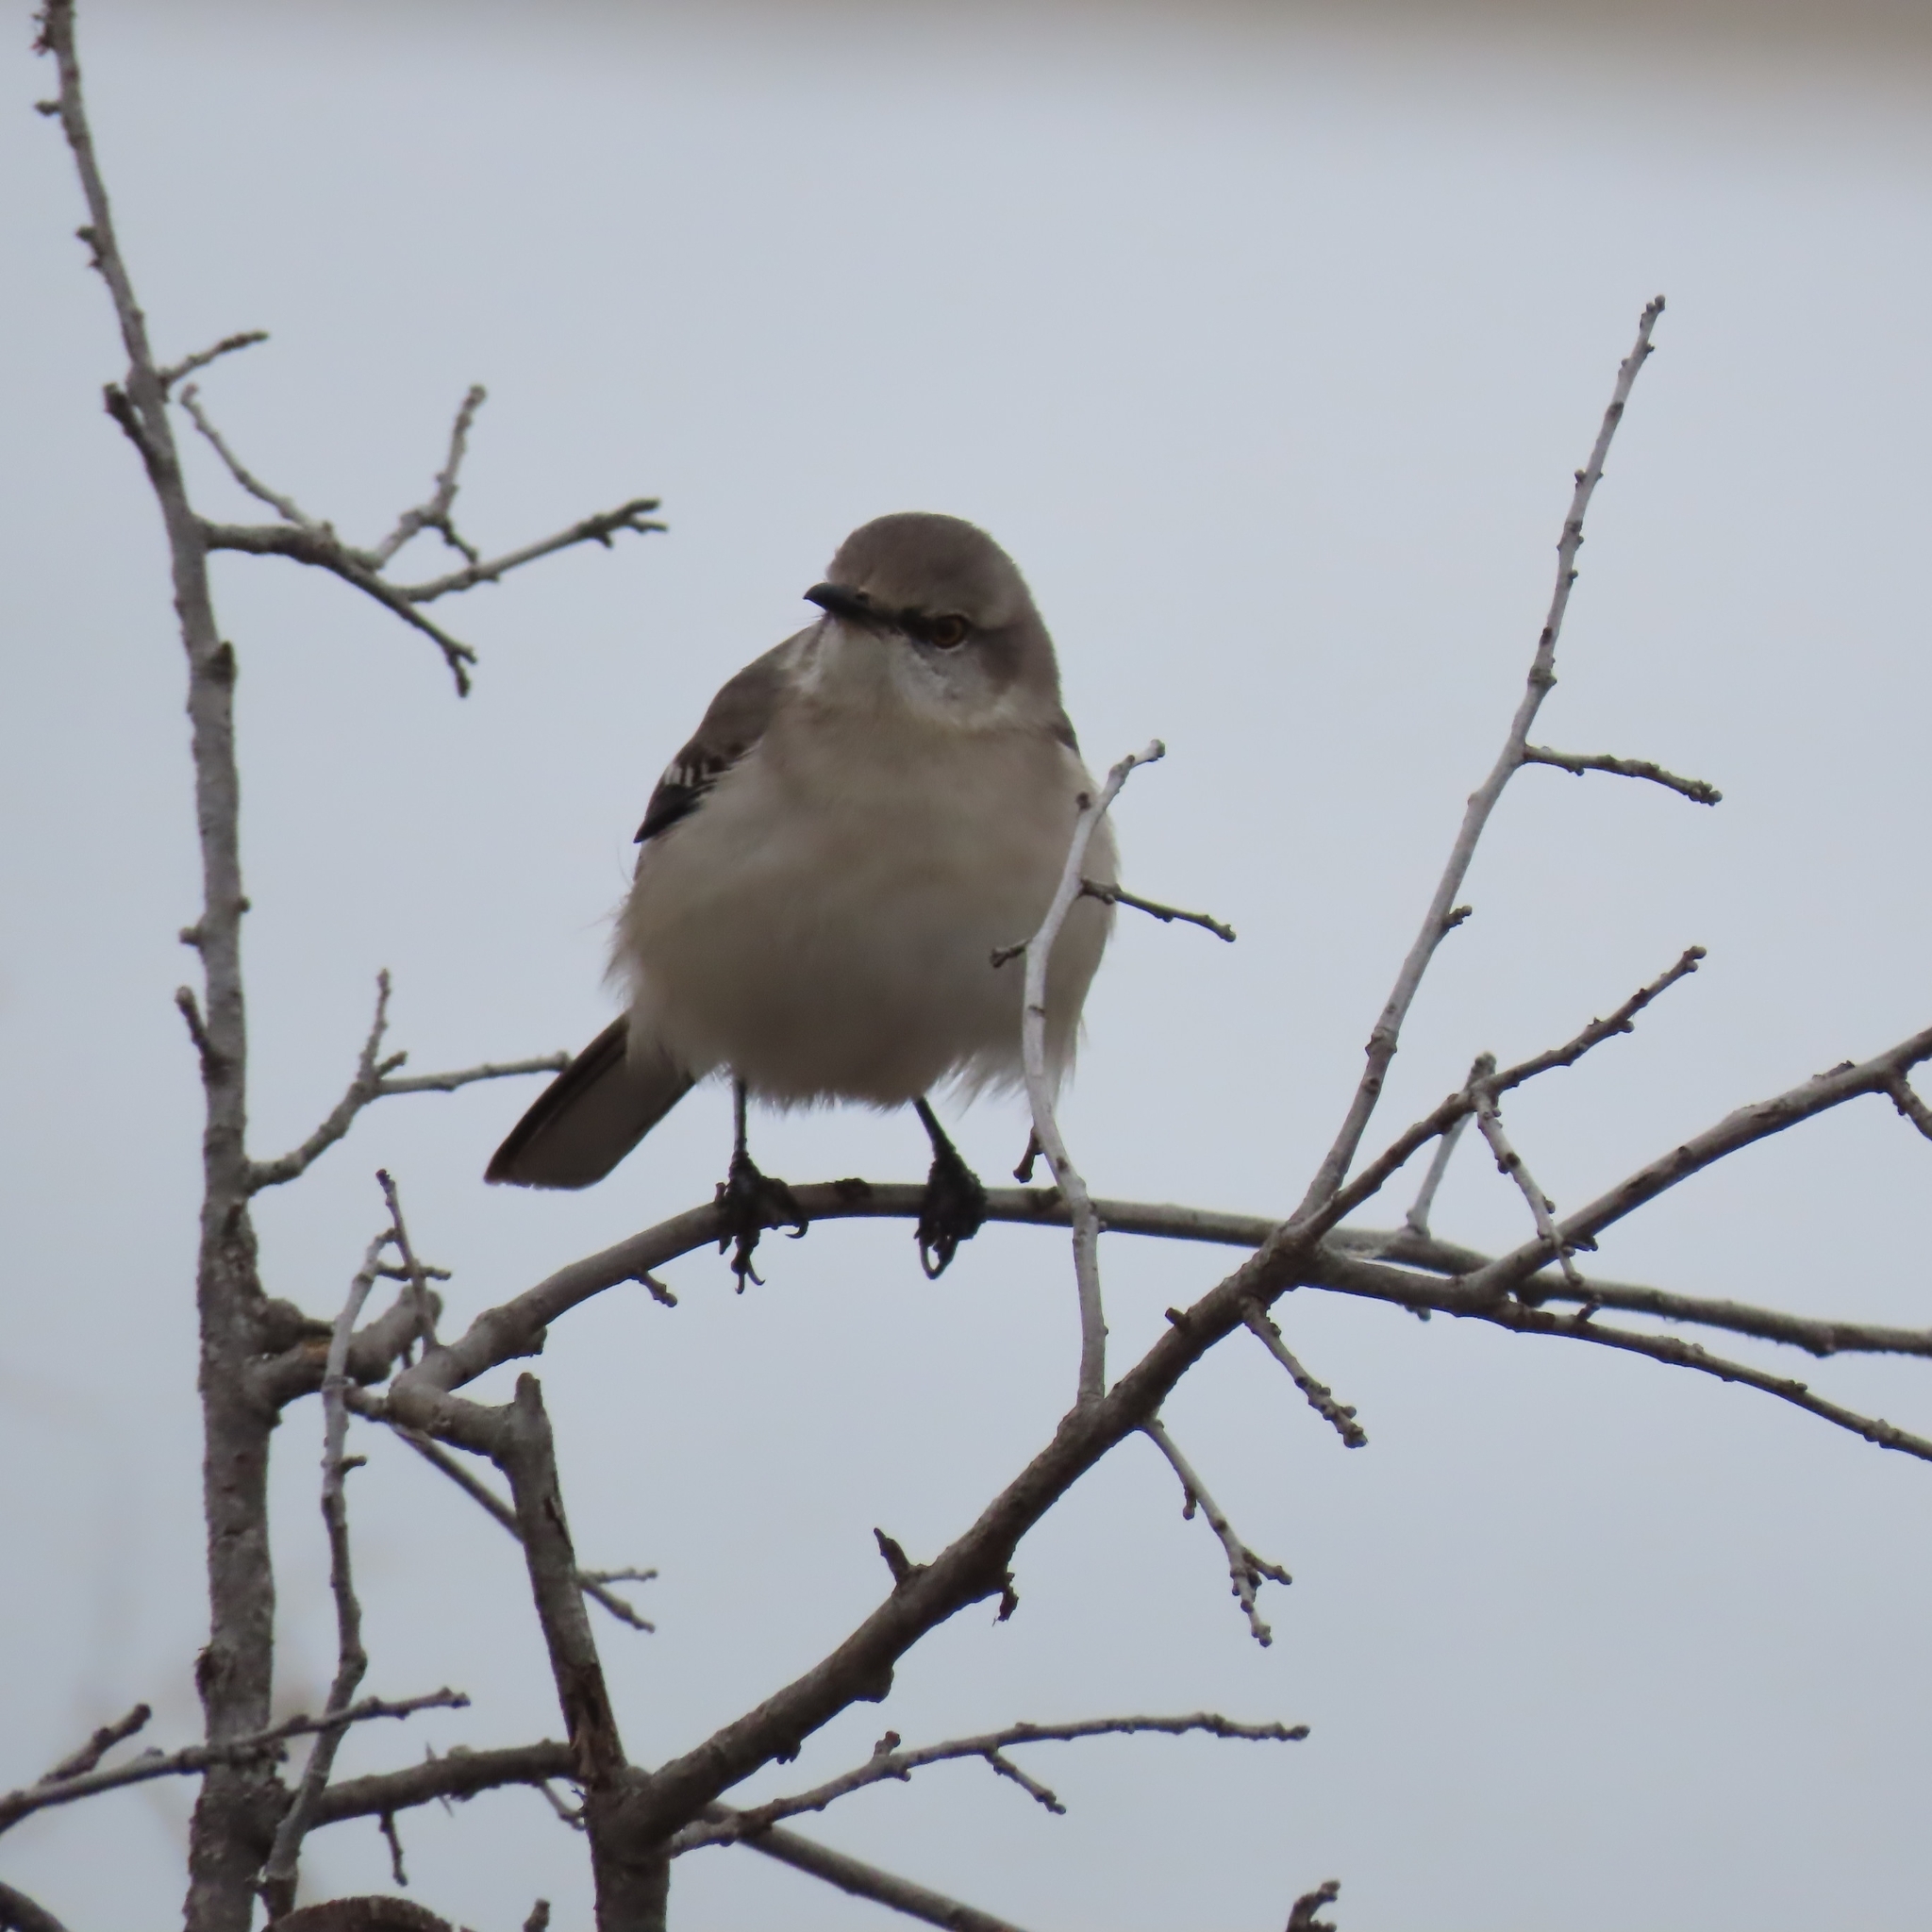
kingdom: Animalia
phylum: Chordata
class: Aves
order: Passeriformes
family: Mimidae
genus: Mimus
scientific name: Mimus polyglottos
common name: Northern mockingbird
